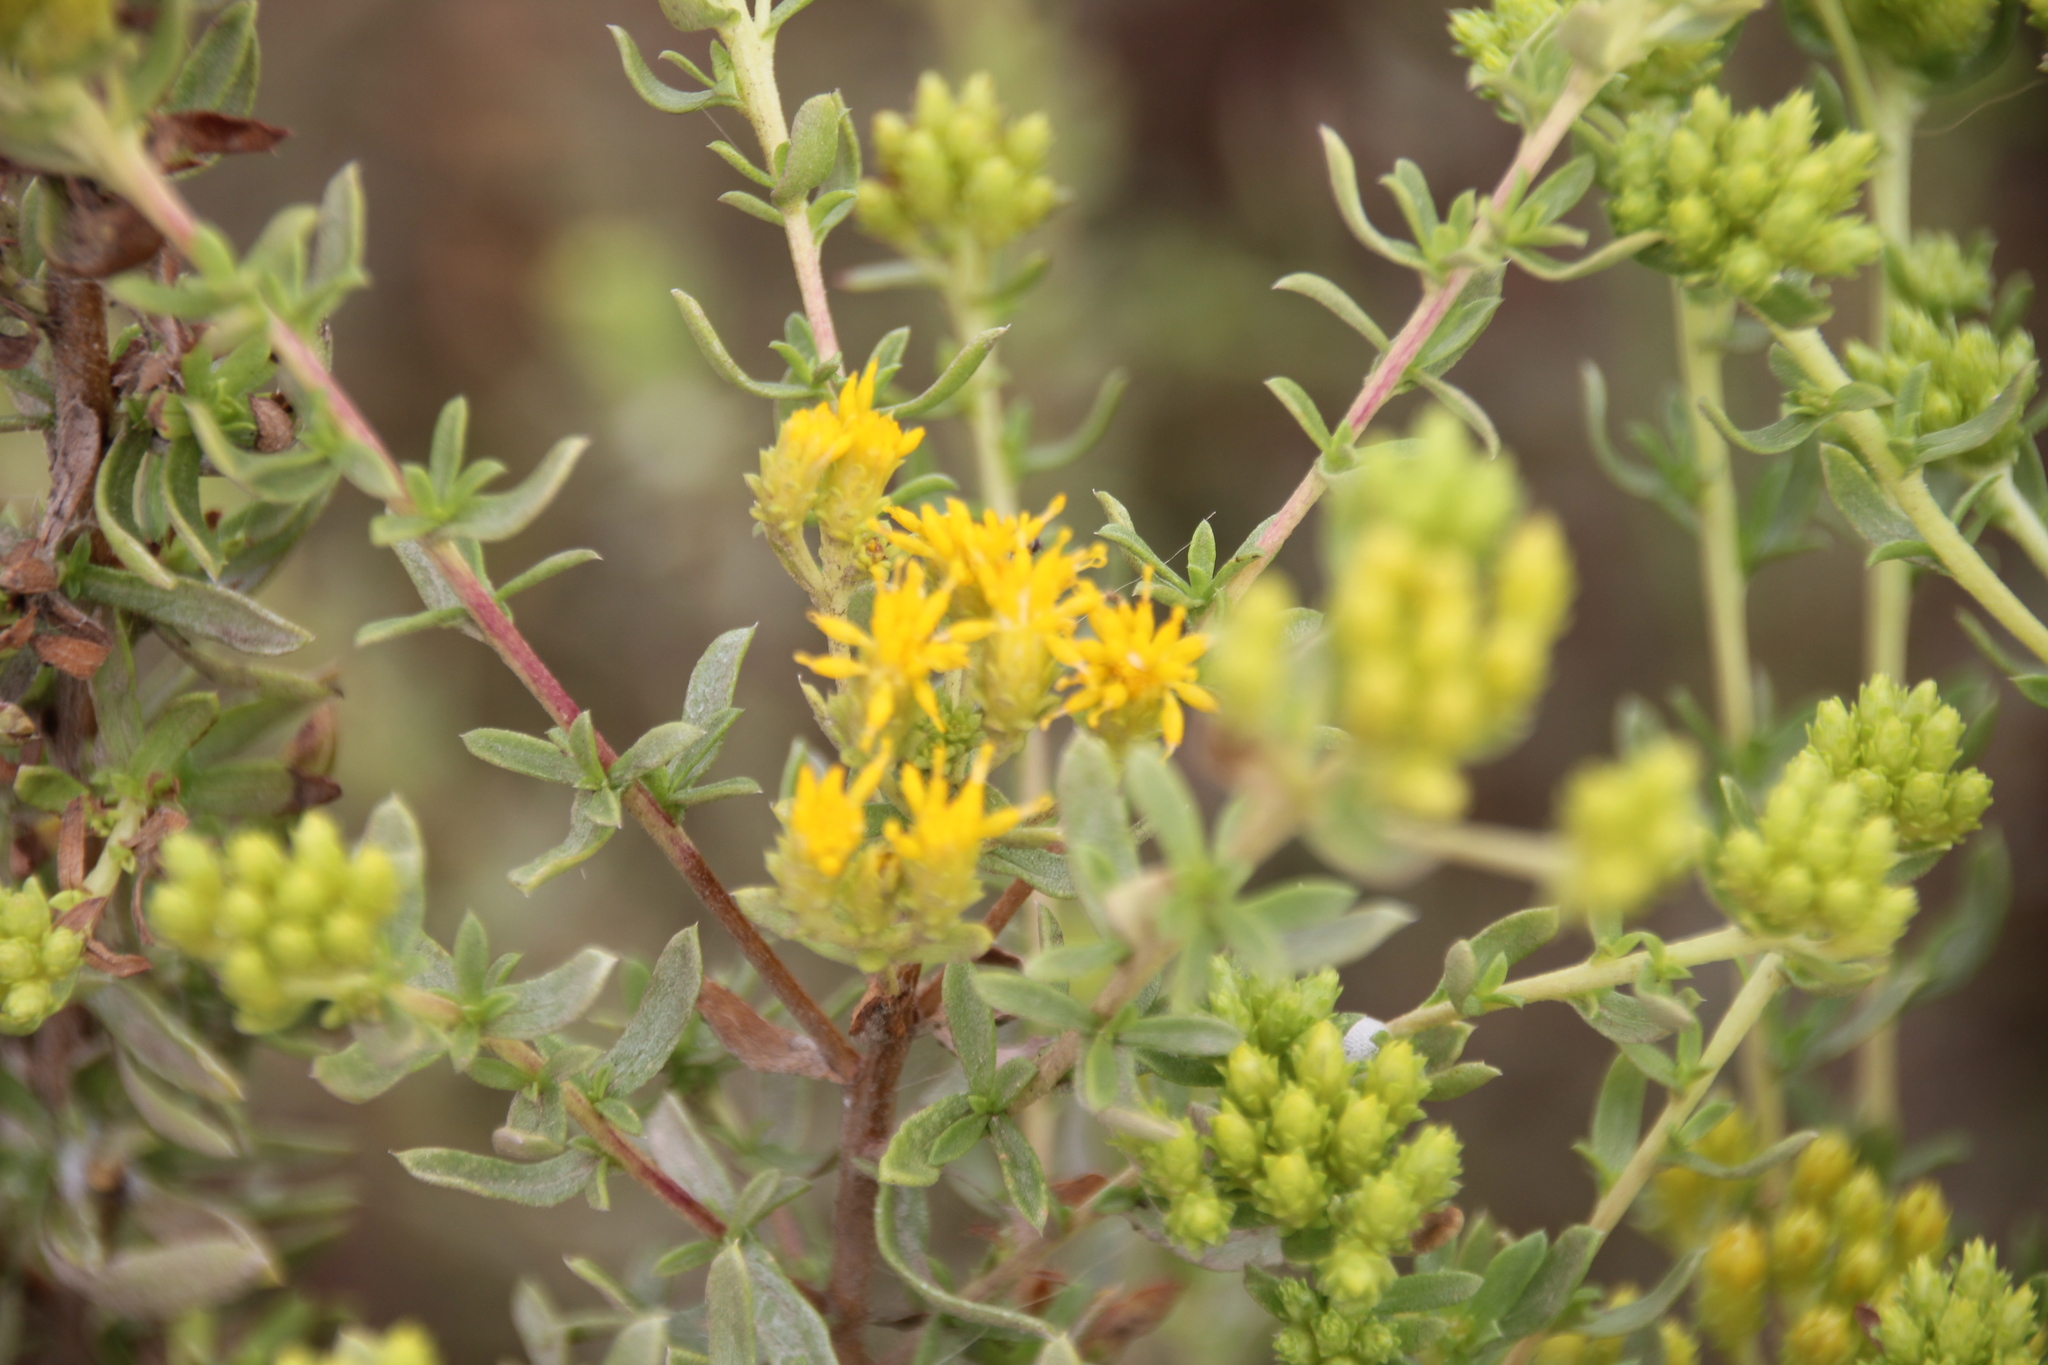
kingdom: Plantae
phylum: Tracheophyta
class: Magnoliopsida
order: Asterales
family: Asteraceae
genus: Isocoma
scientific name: Isocoma menziesii
